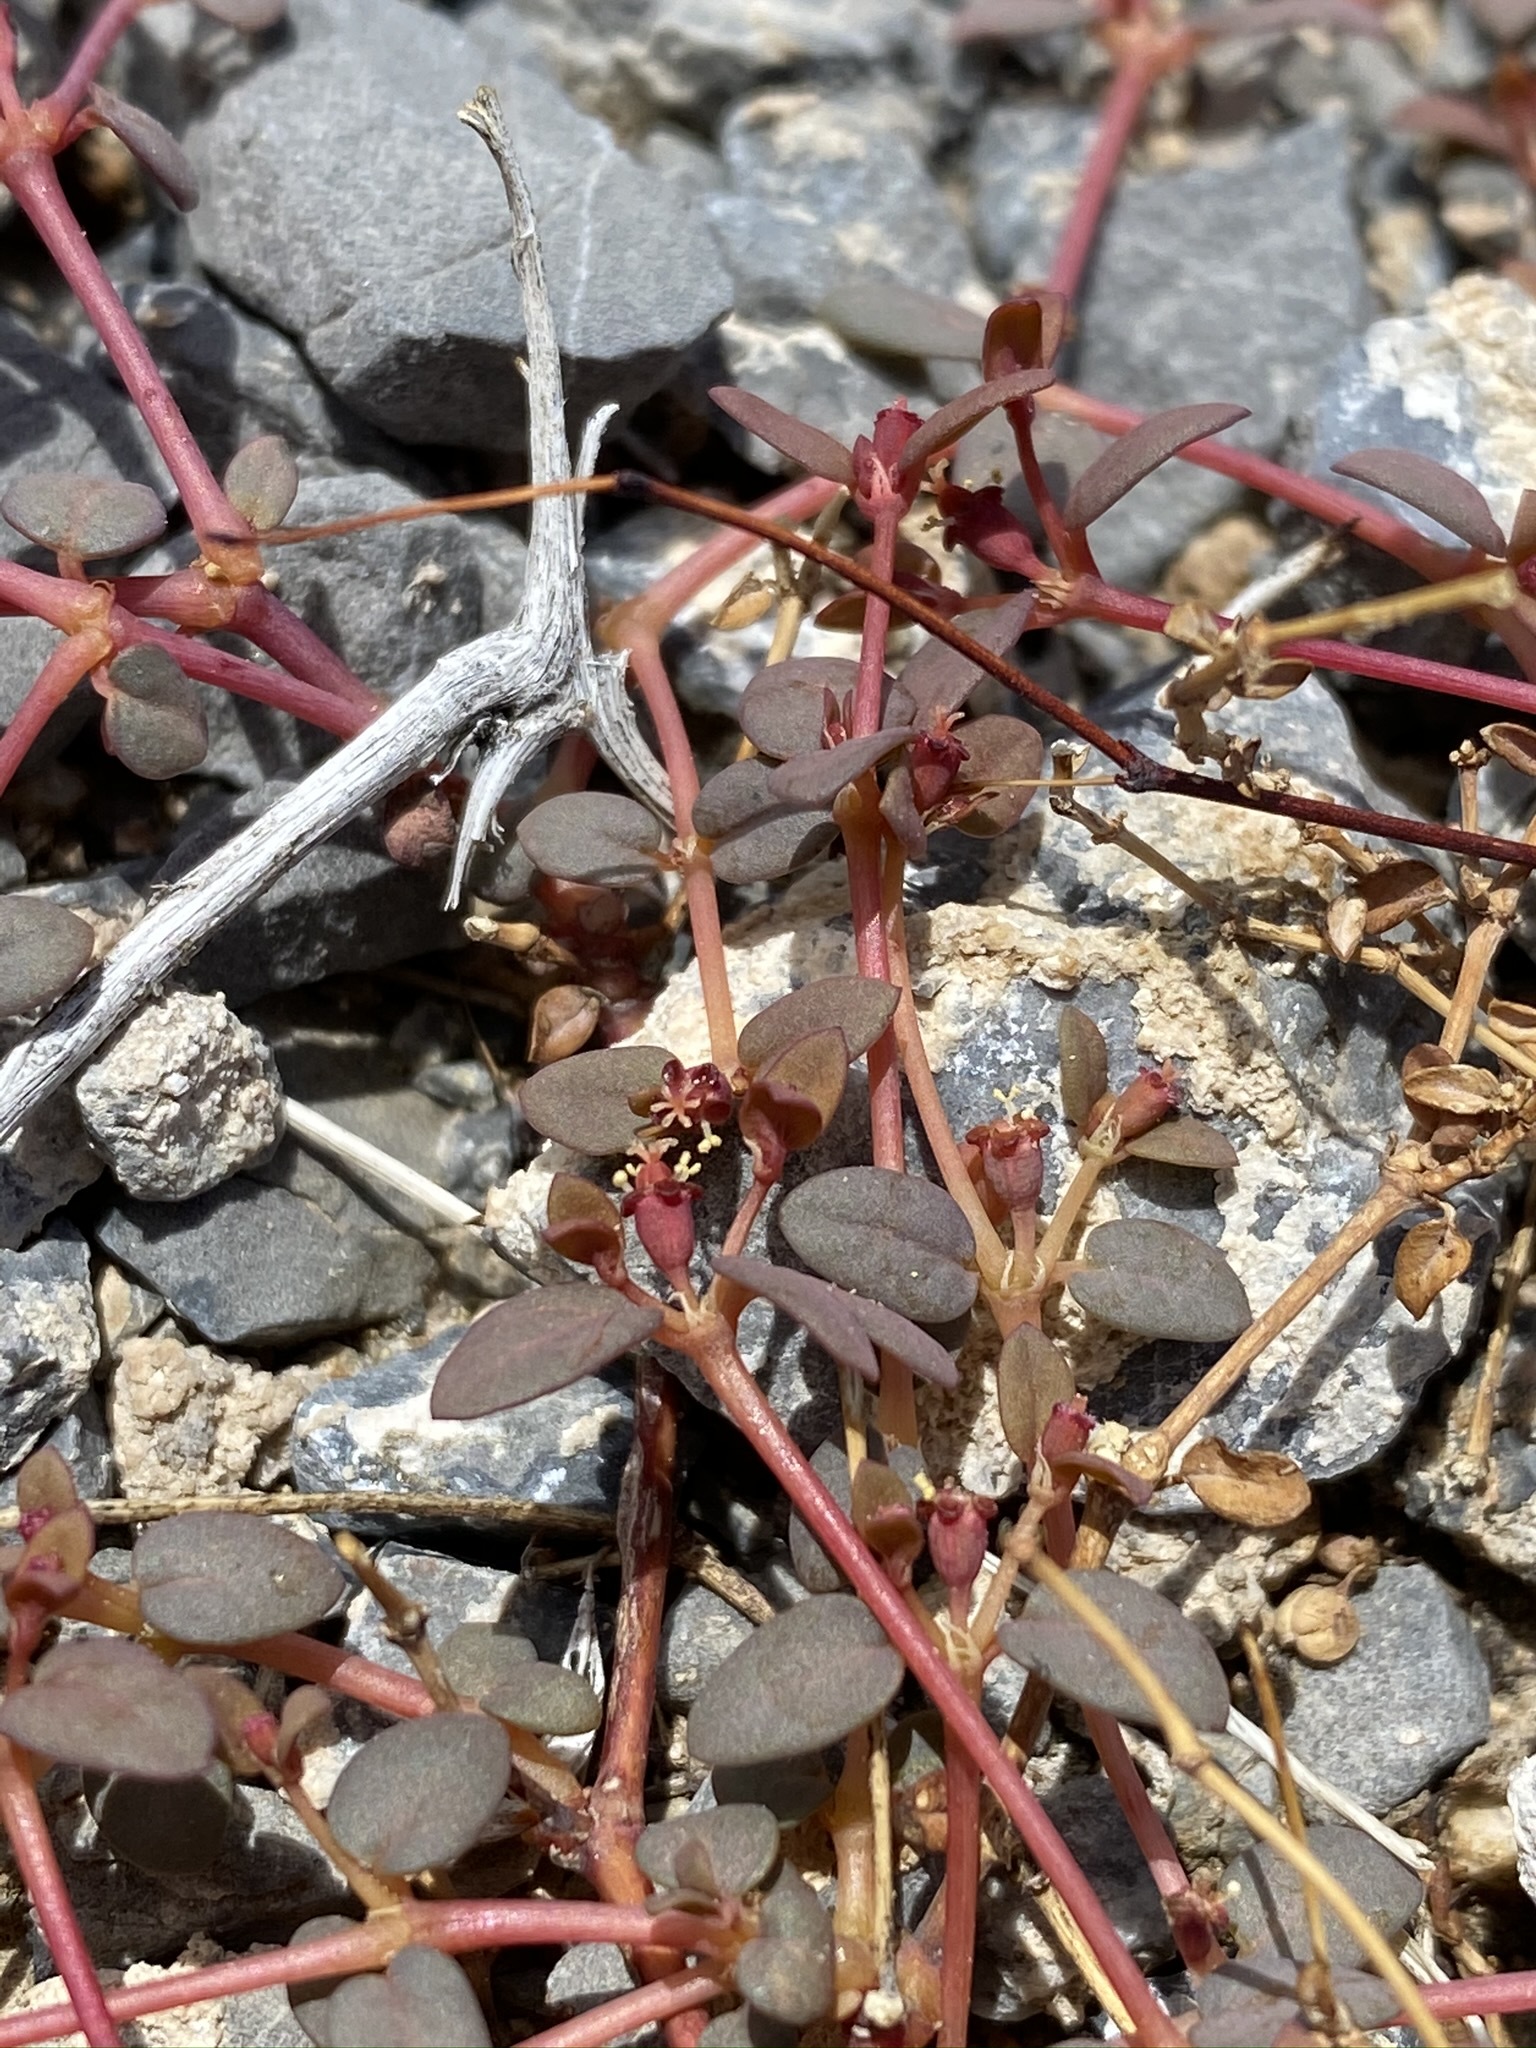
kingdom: Plantae
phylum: Tracheophyta
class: Magnoliopsida
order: Malpighiales
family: Euphorbiaceae
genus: Euphorbia
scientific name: Euphorbia parishii
